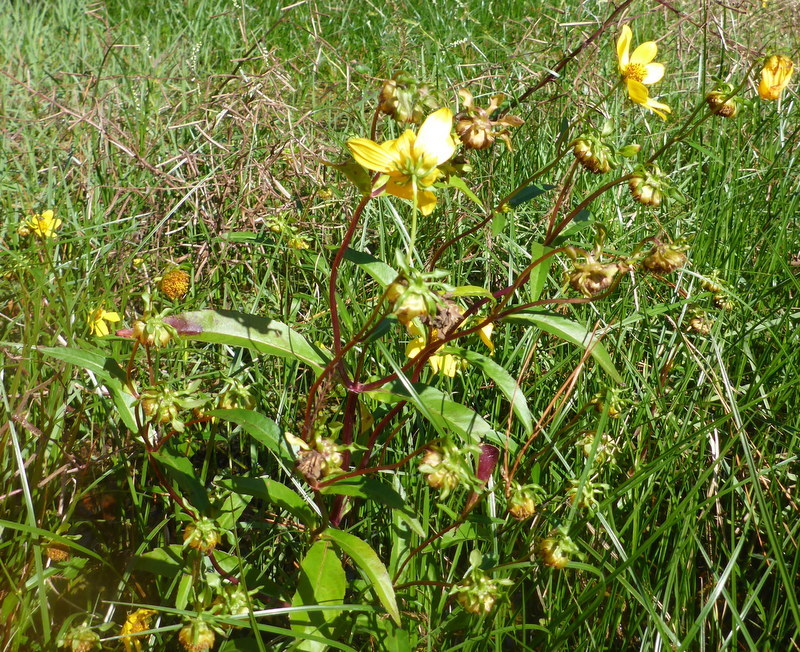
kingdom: Plantae
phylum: Tracheophyta
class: Magnoliopsida
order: Asterales
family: Asteraceae
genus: Bidens
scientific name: Bidens laevis
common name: Larger bur-marigold
